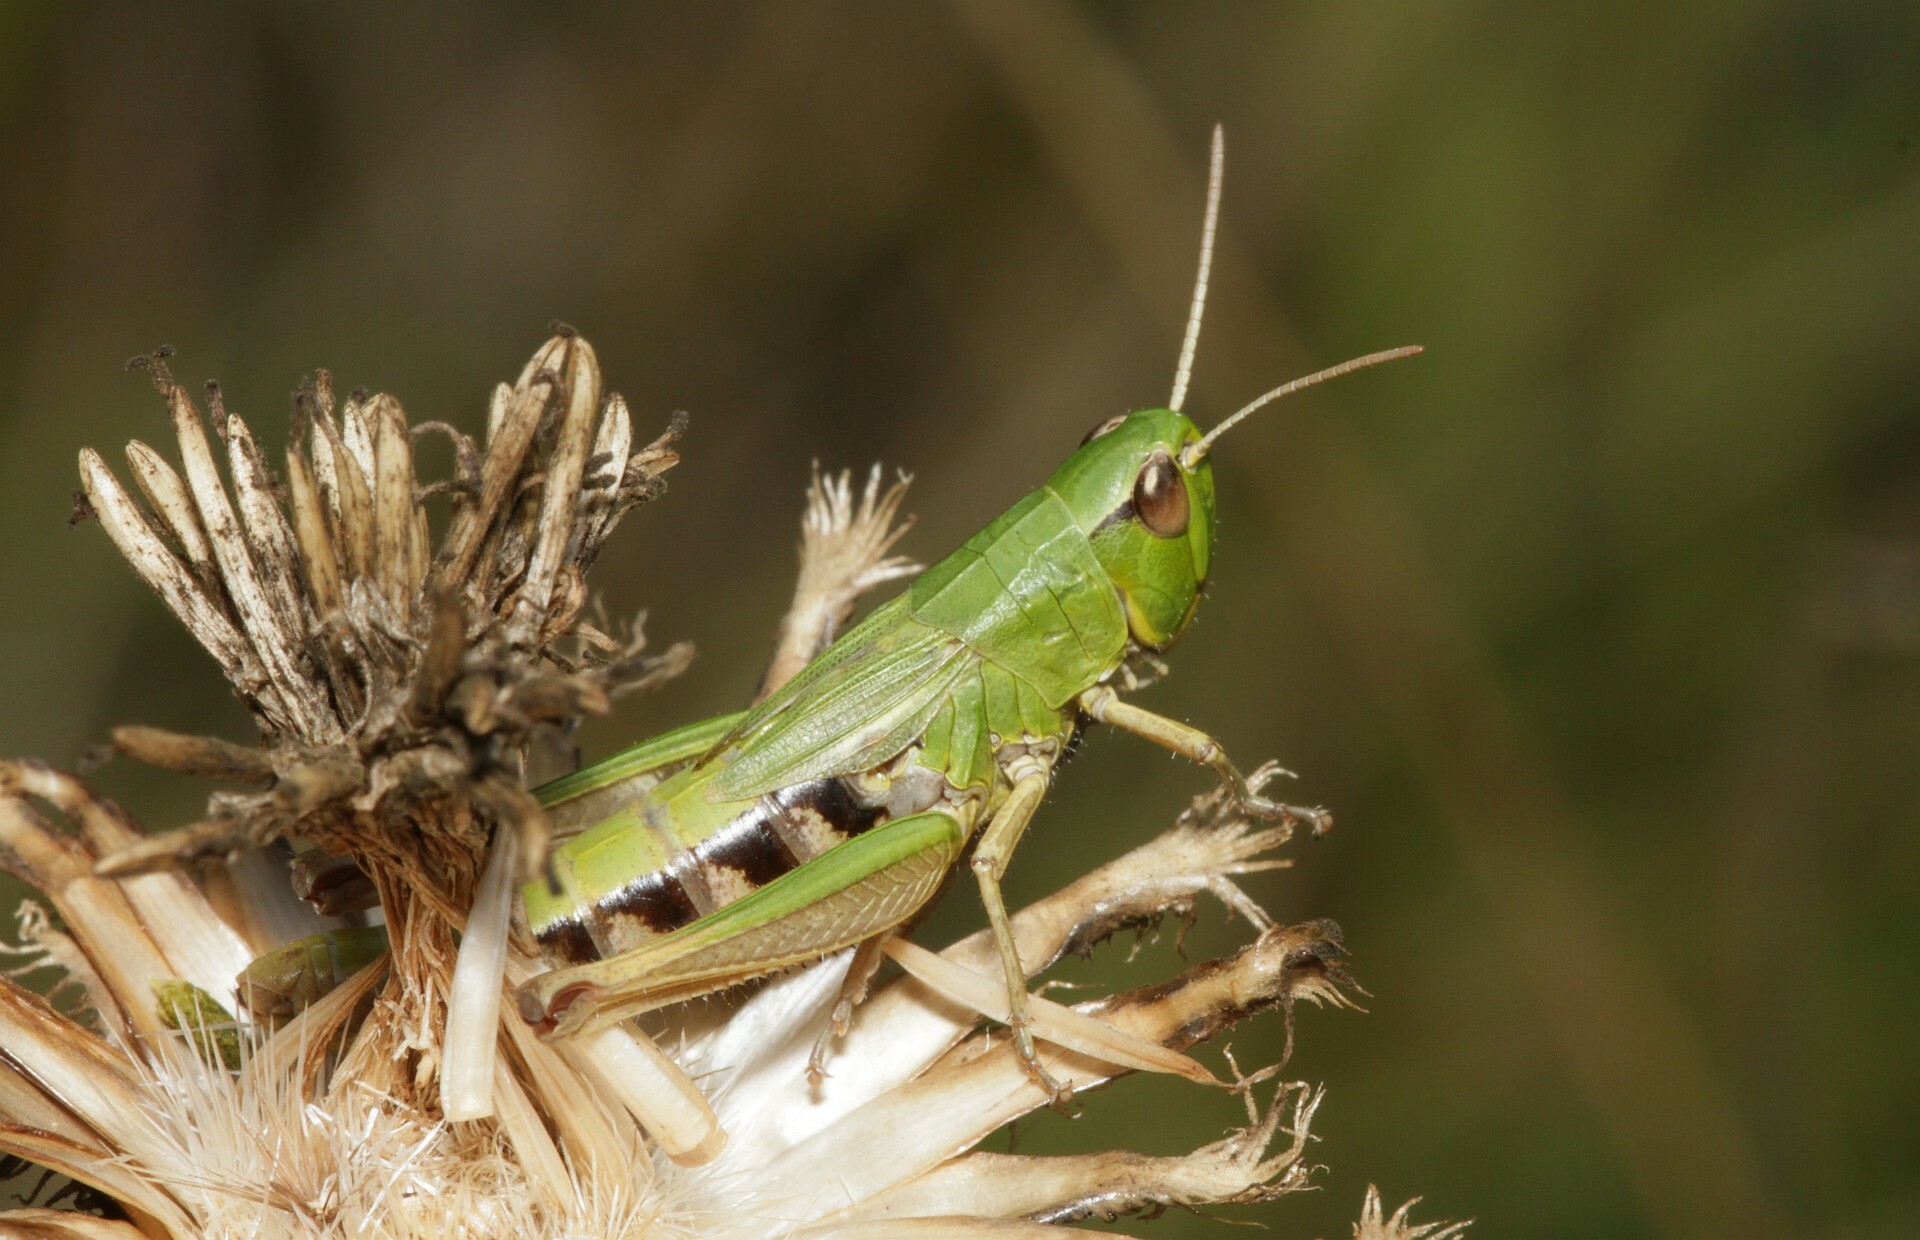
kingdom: Animalia
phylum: Arthropoda
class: Insecta
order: Orthoptera
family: Acrididae
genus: Pseudochorthippus
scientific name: Pseudochorthippus parallelus
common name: Meadow grasshopper
